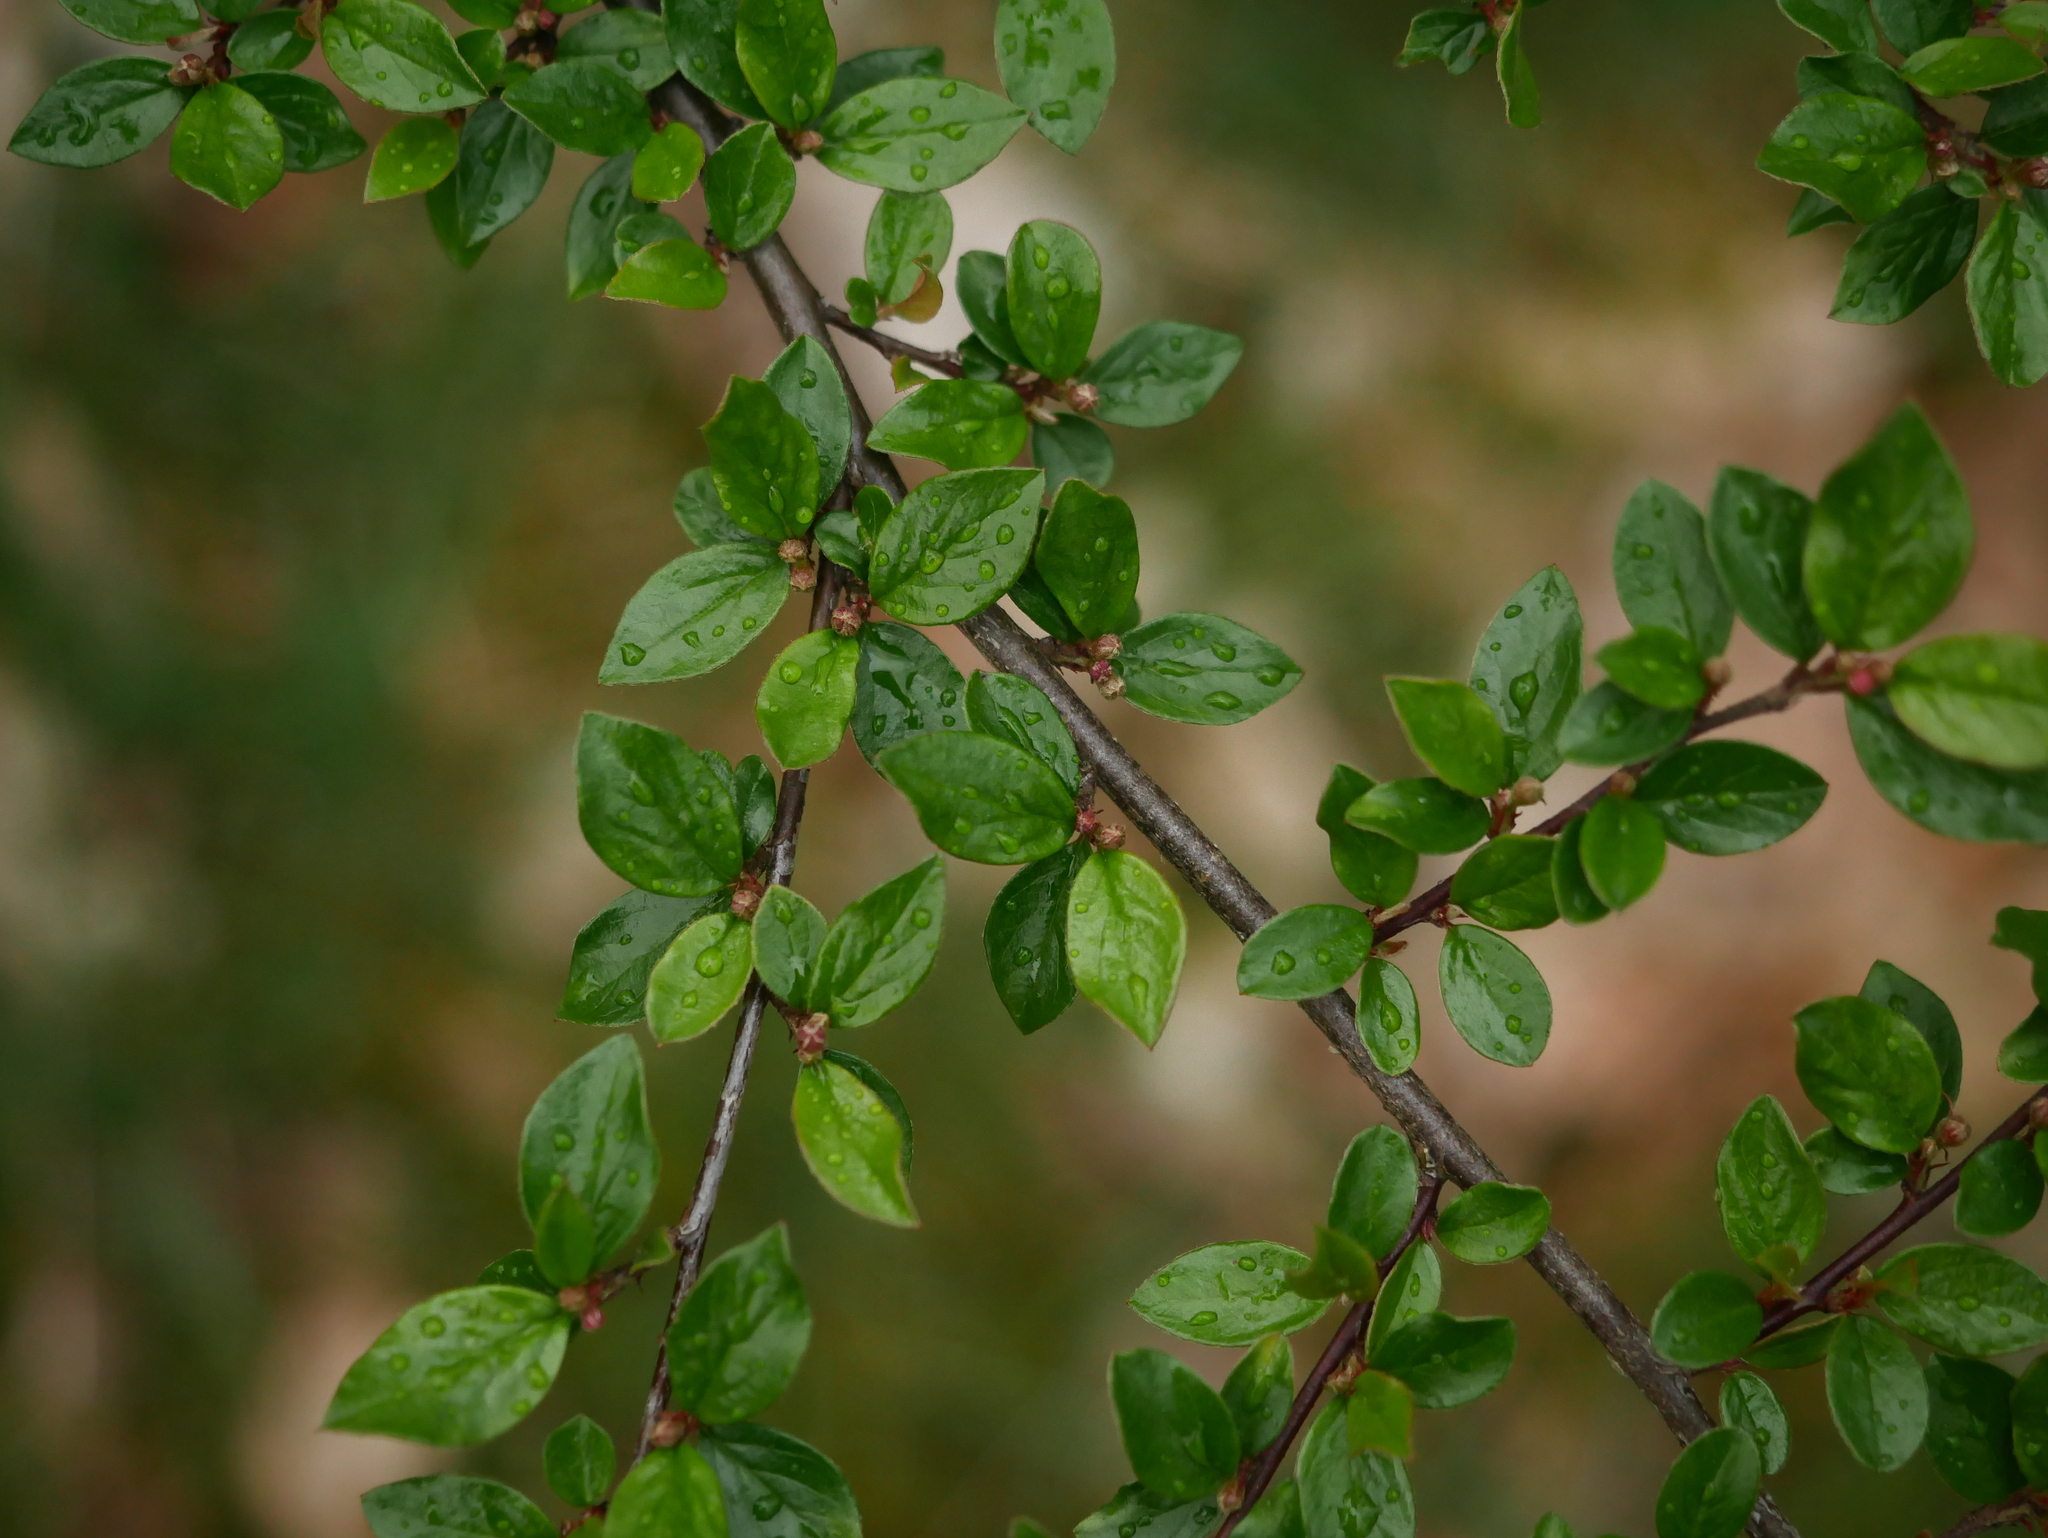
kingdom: Plantae
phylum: Tracheophyta
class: Magnoliopsida
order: Rosales
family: Rosaceae
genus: Cotoneaster
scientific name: Cotoneaster divaricatus
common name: Spreading cotoneaster
